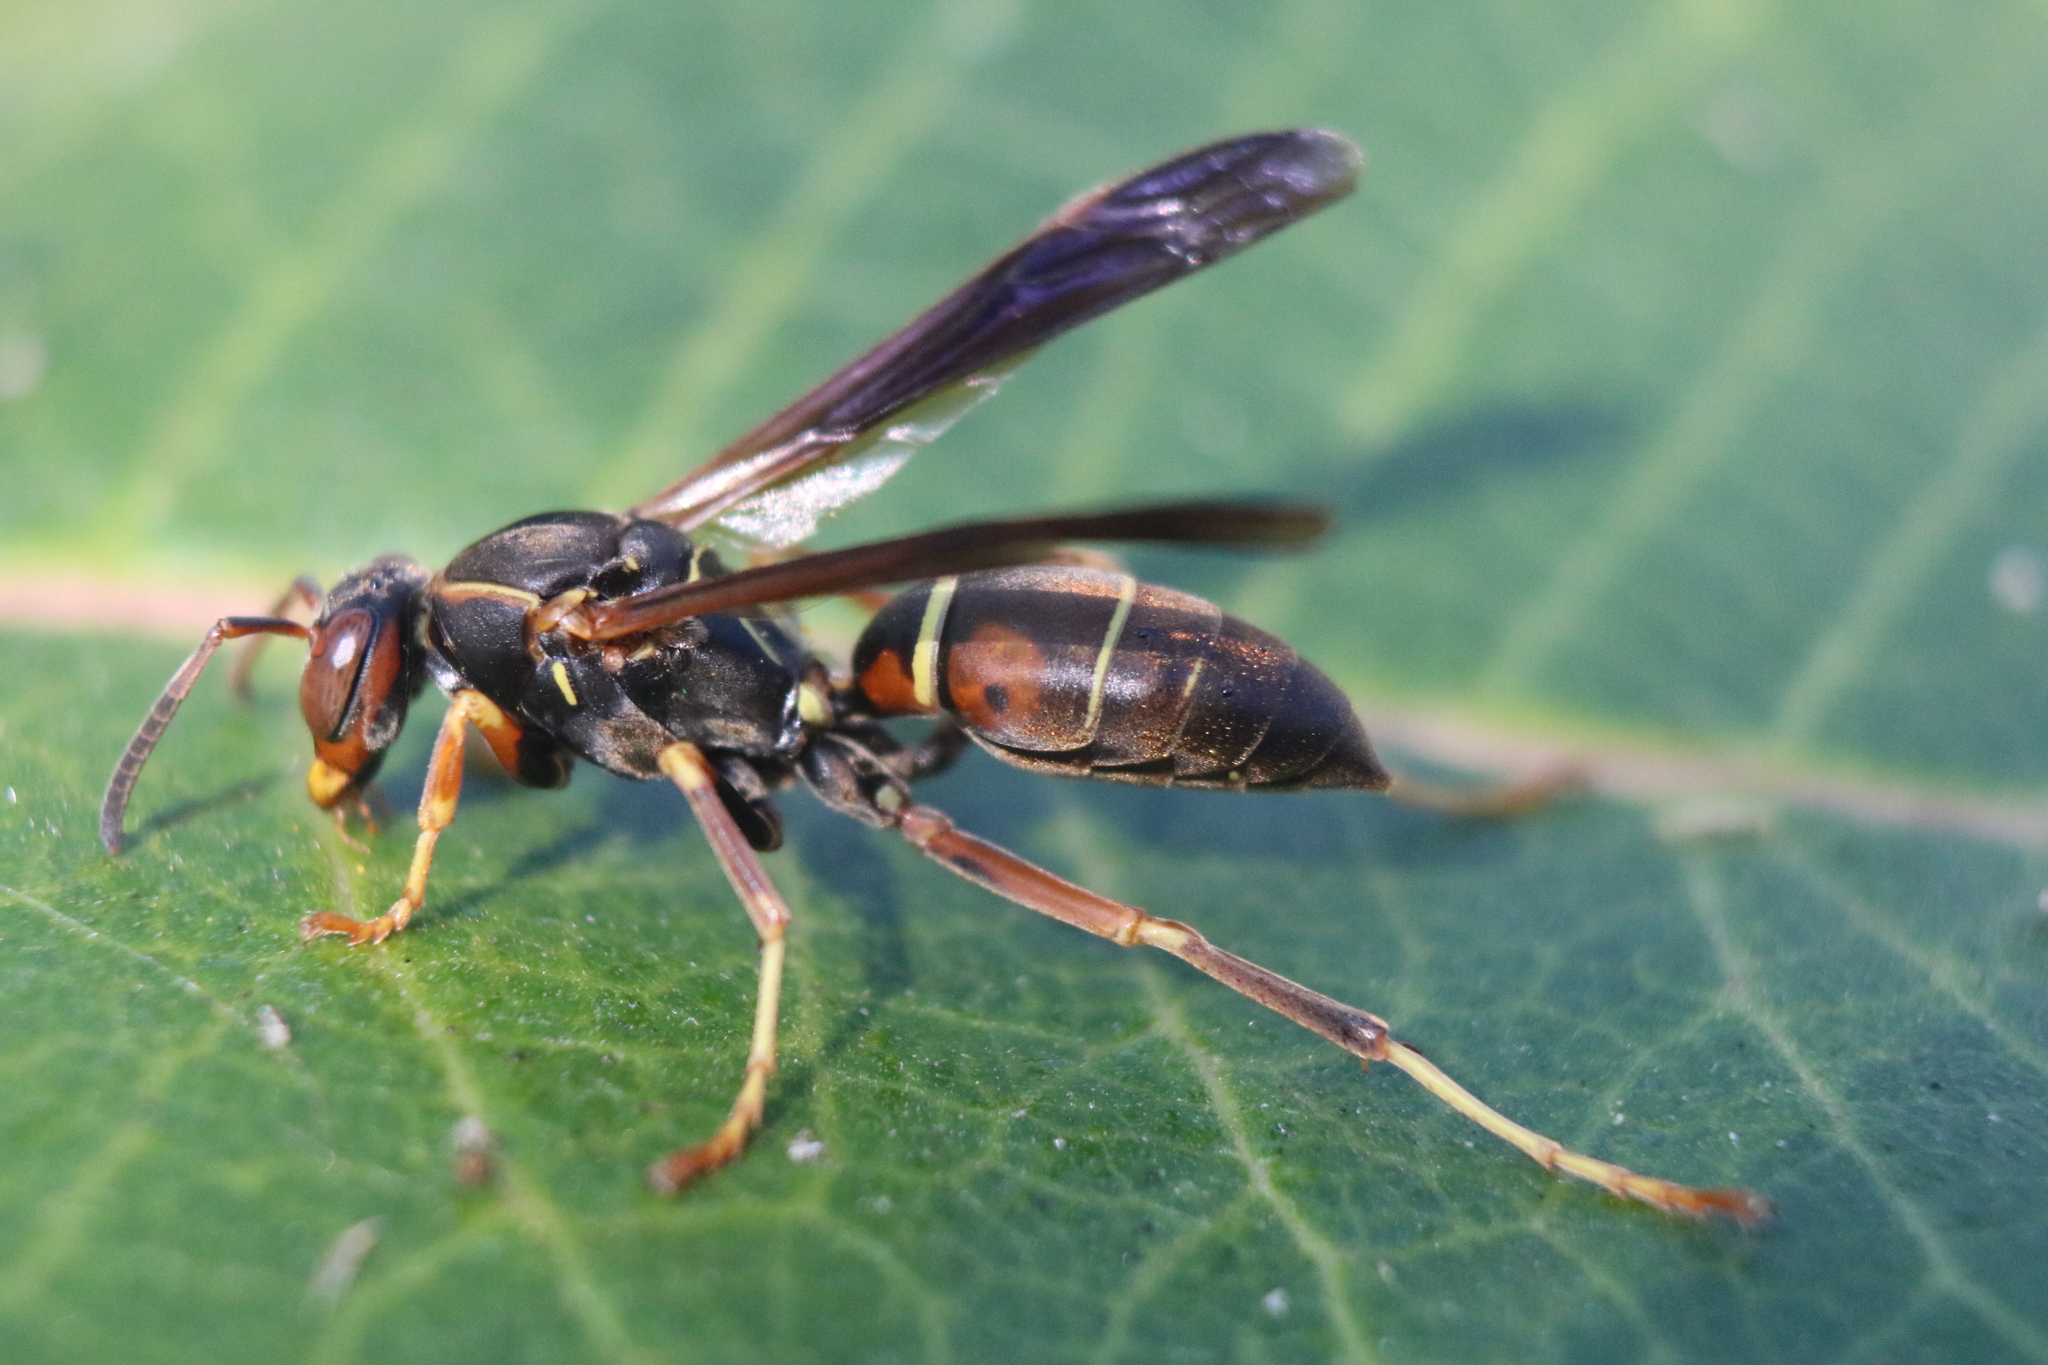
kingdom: Animalia
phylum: Arthropoda
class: Insecta
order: Hymenoptera
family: Eumenidae
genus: Polistes
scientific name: Polistes fuscatus
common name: Dark paper wasp
